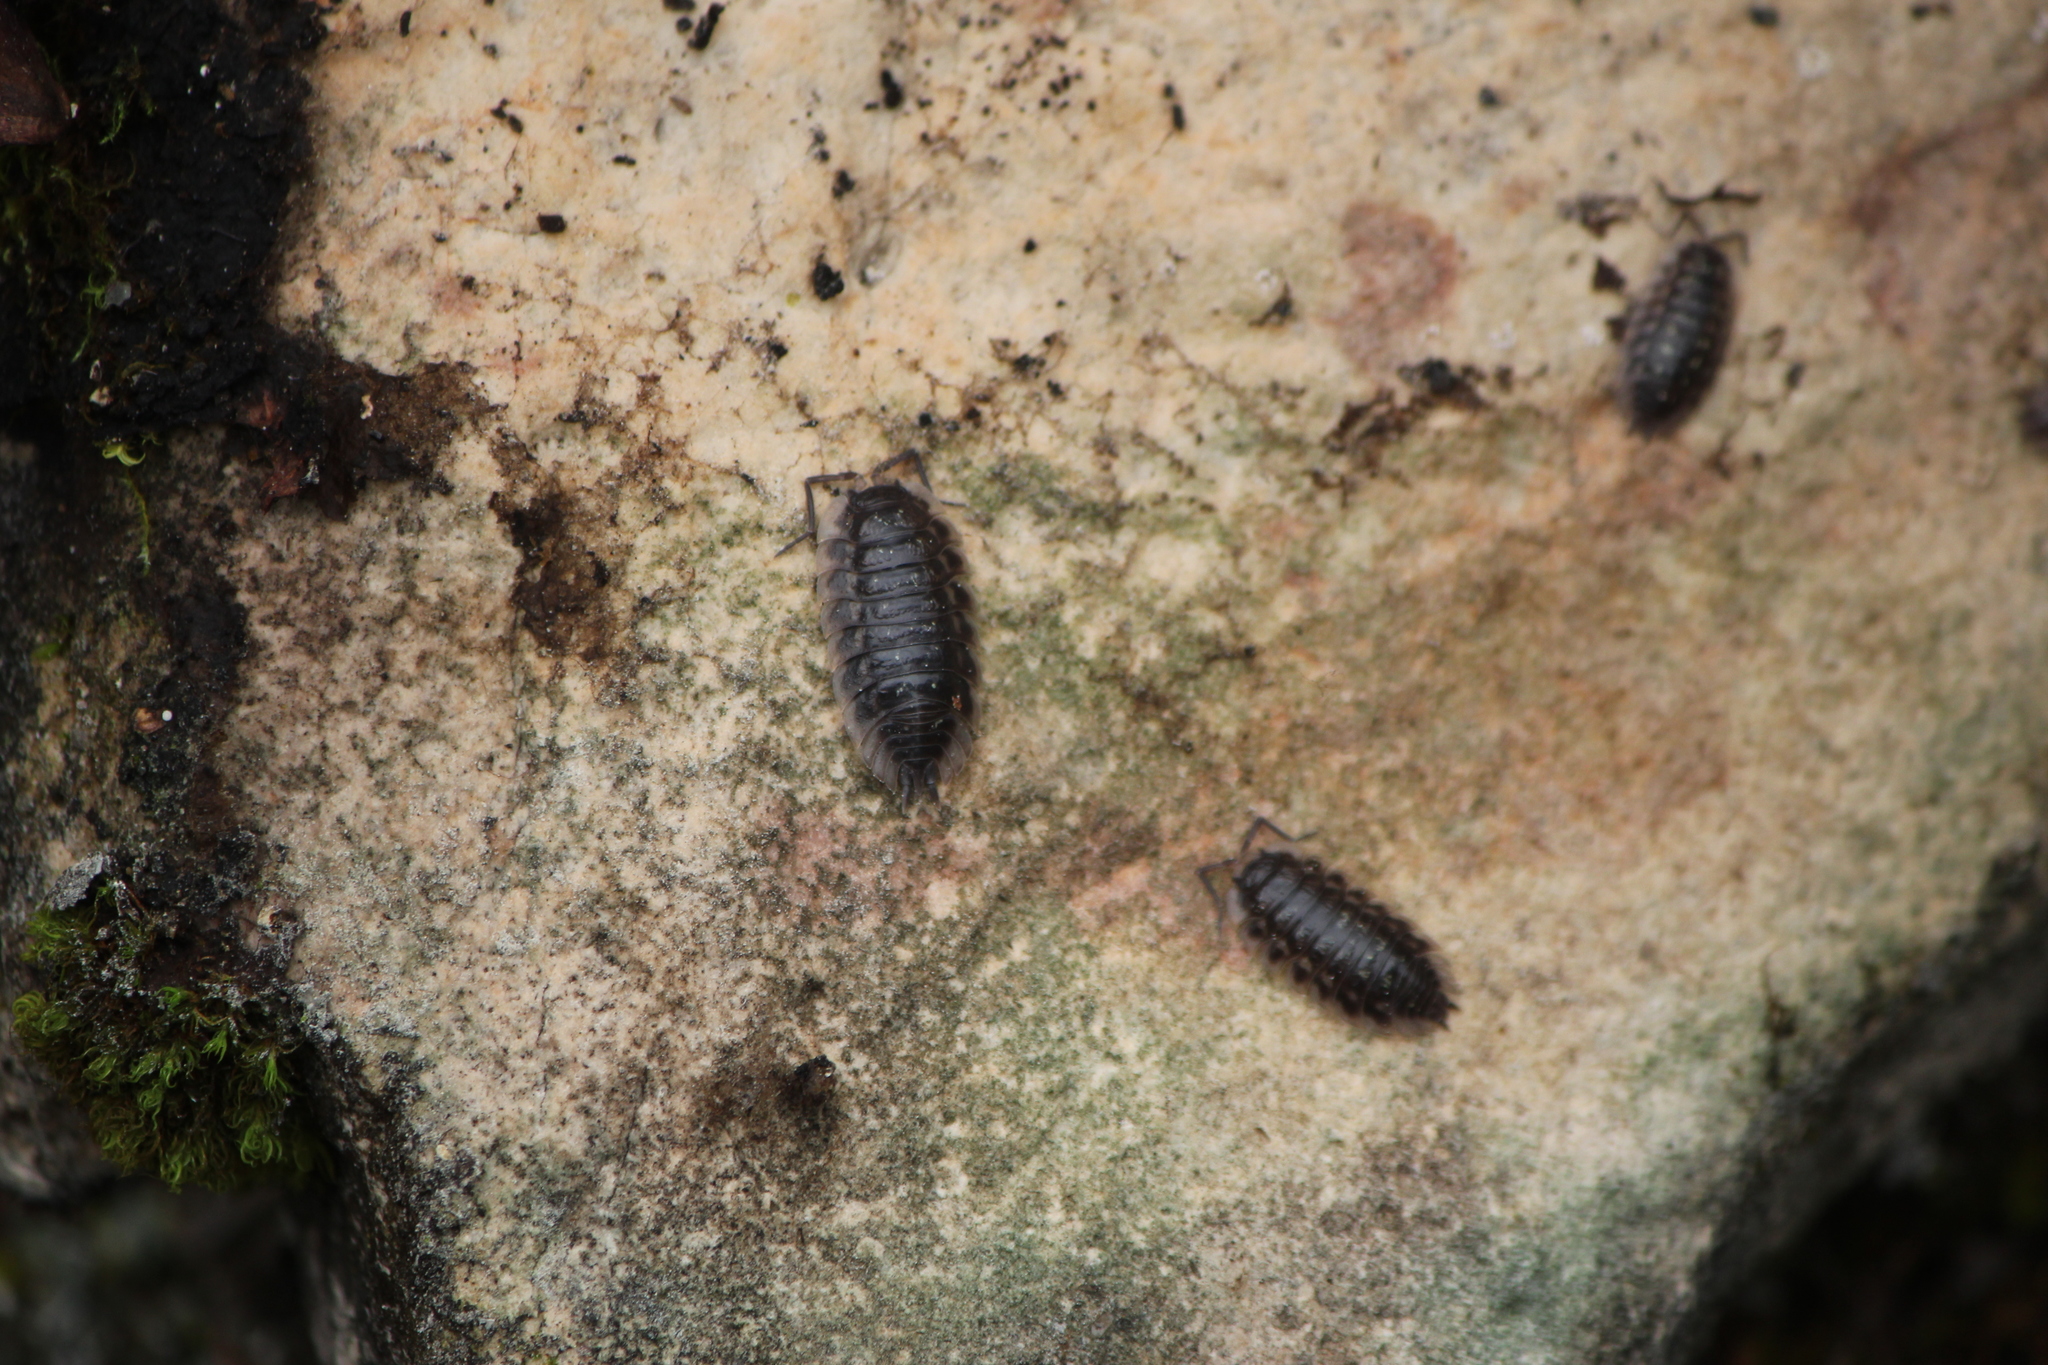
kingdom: Animalia
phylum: Arthropoda
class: Malacostraca
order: Isopoda
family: Porcellionidae
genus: Porcellio
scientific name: Porcellio scaber
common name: Common rough woodlouse
